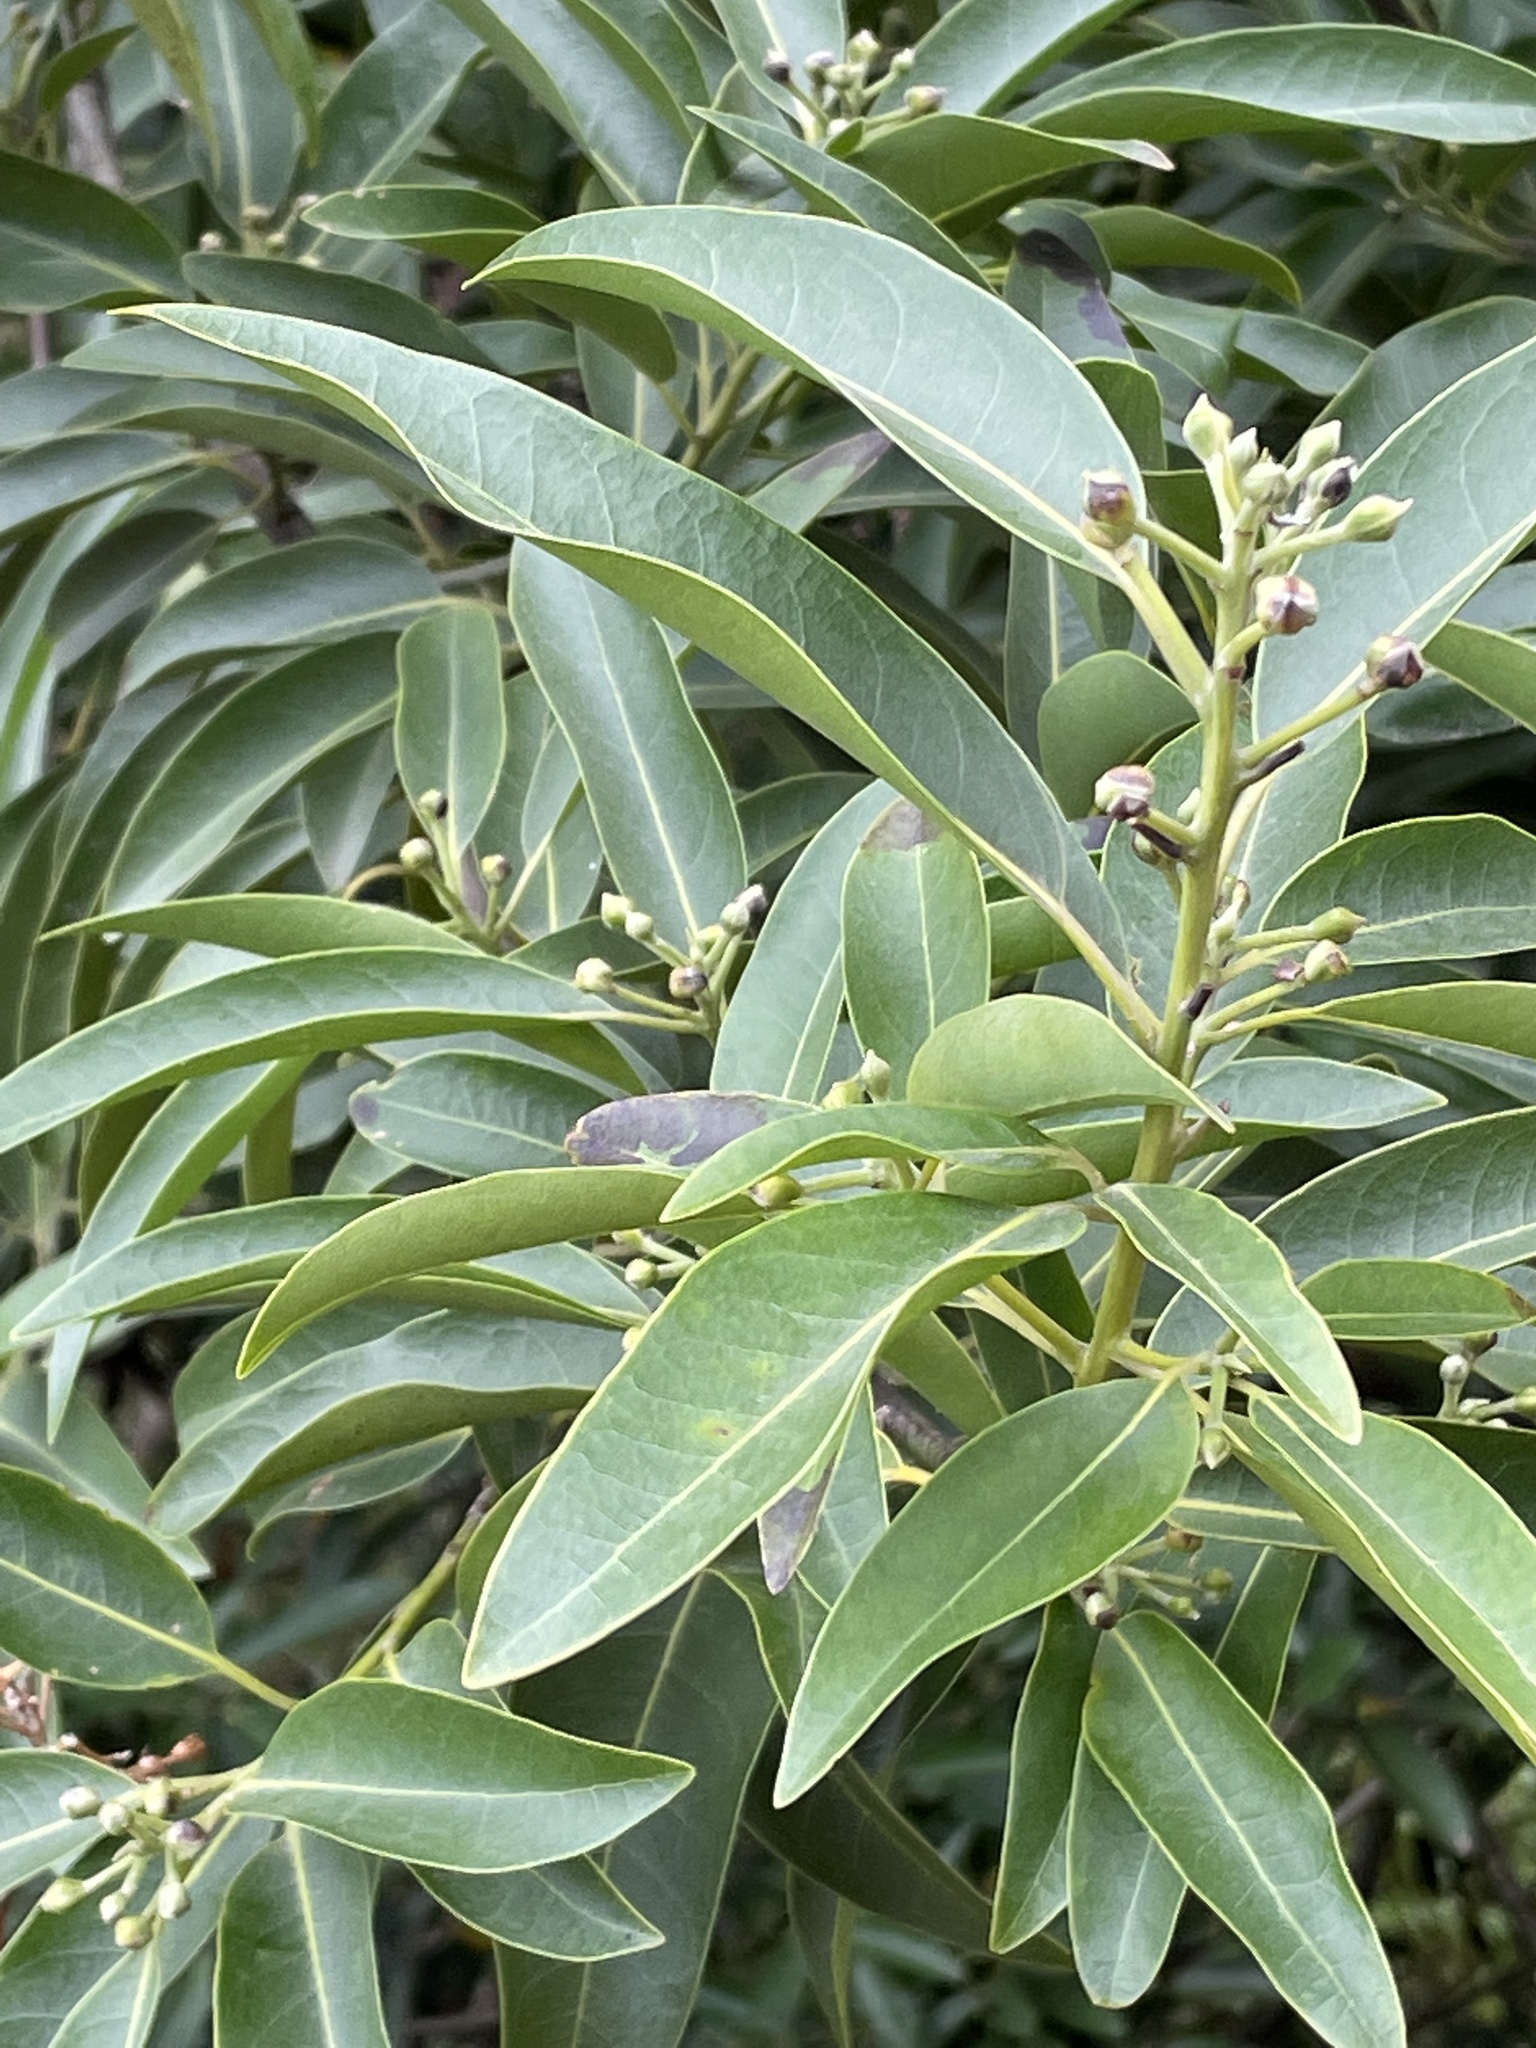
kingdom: Plantae
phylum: Tracheophyta
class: Magnoliopsida
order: Laurales
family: Lauraceae
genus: Umbellularia
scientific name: Umbellularia californica
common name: California bay
